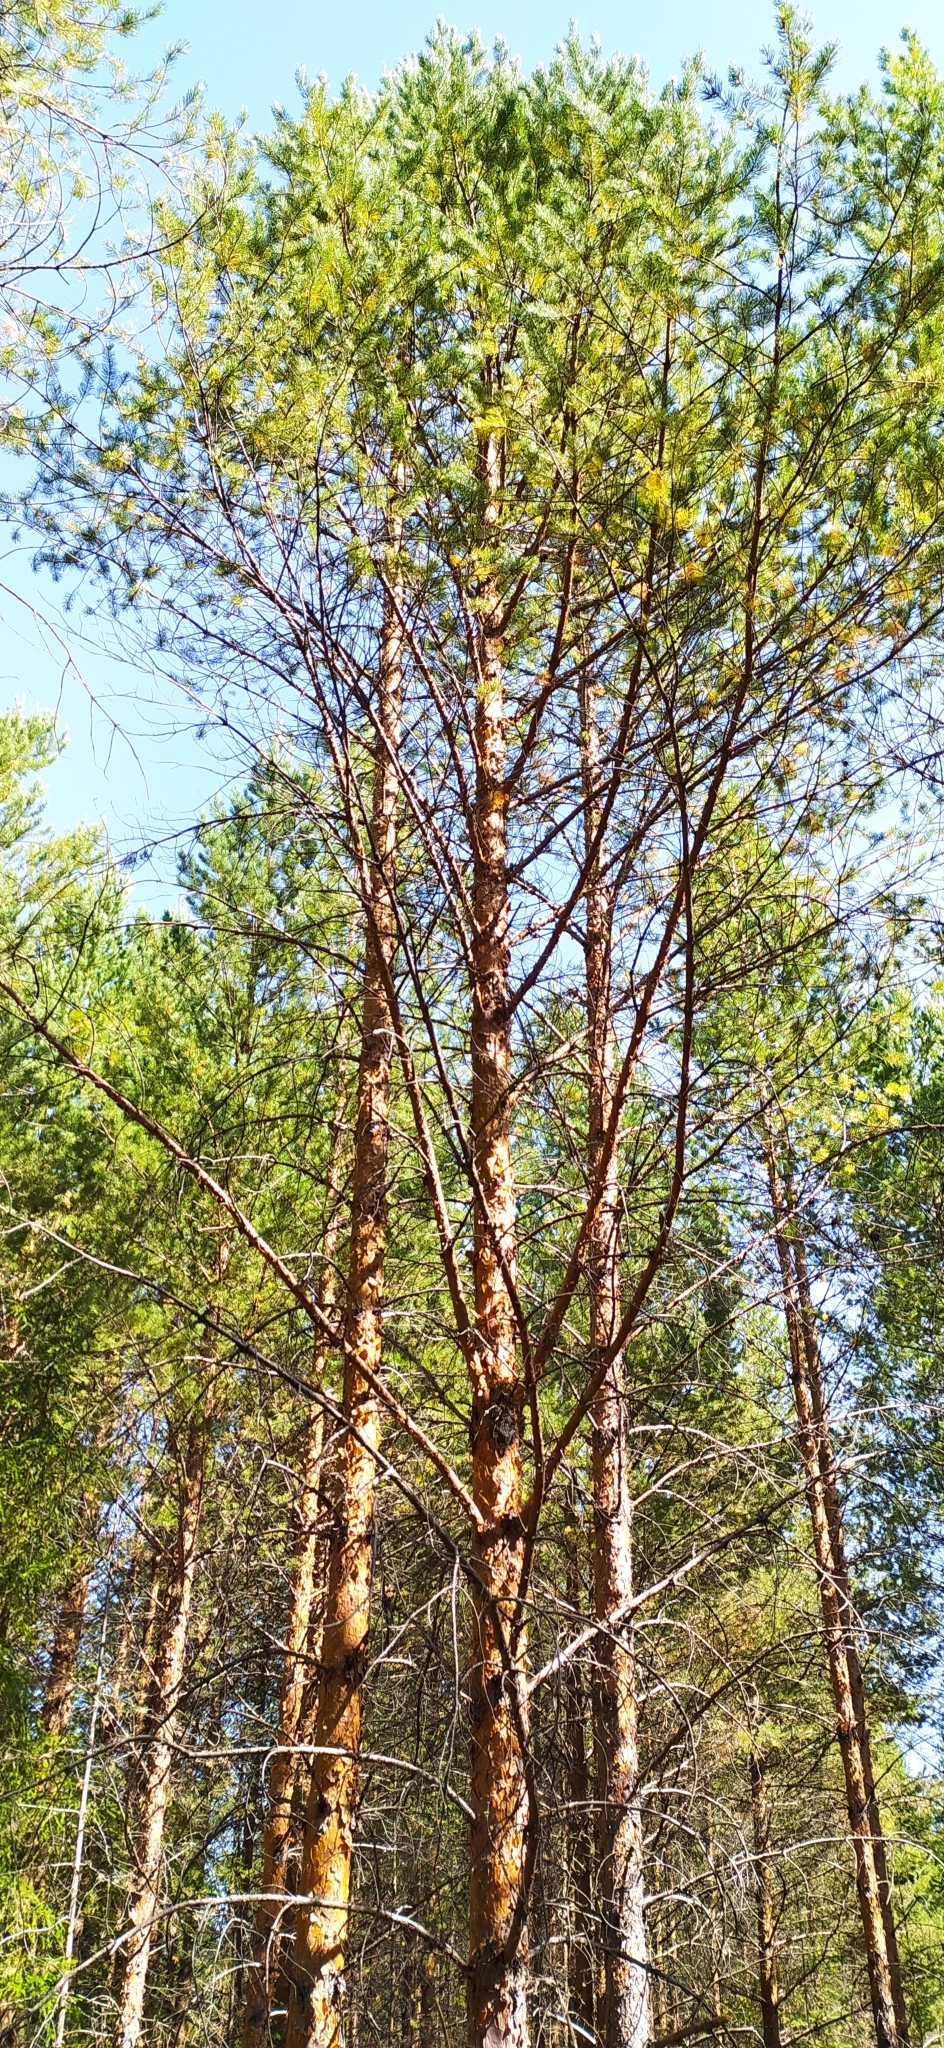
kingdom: Plantae
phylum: Tracheophyta
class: Pinopsida
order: Pinales
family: Pinaceae
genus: Pinus
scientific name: Pinus sylvestris
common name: Scots pine
